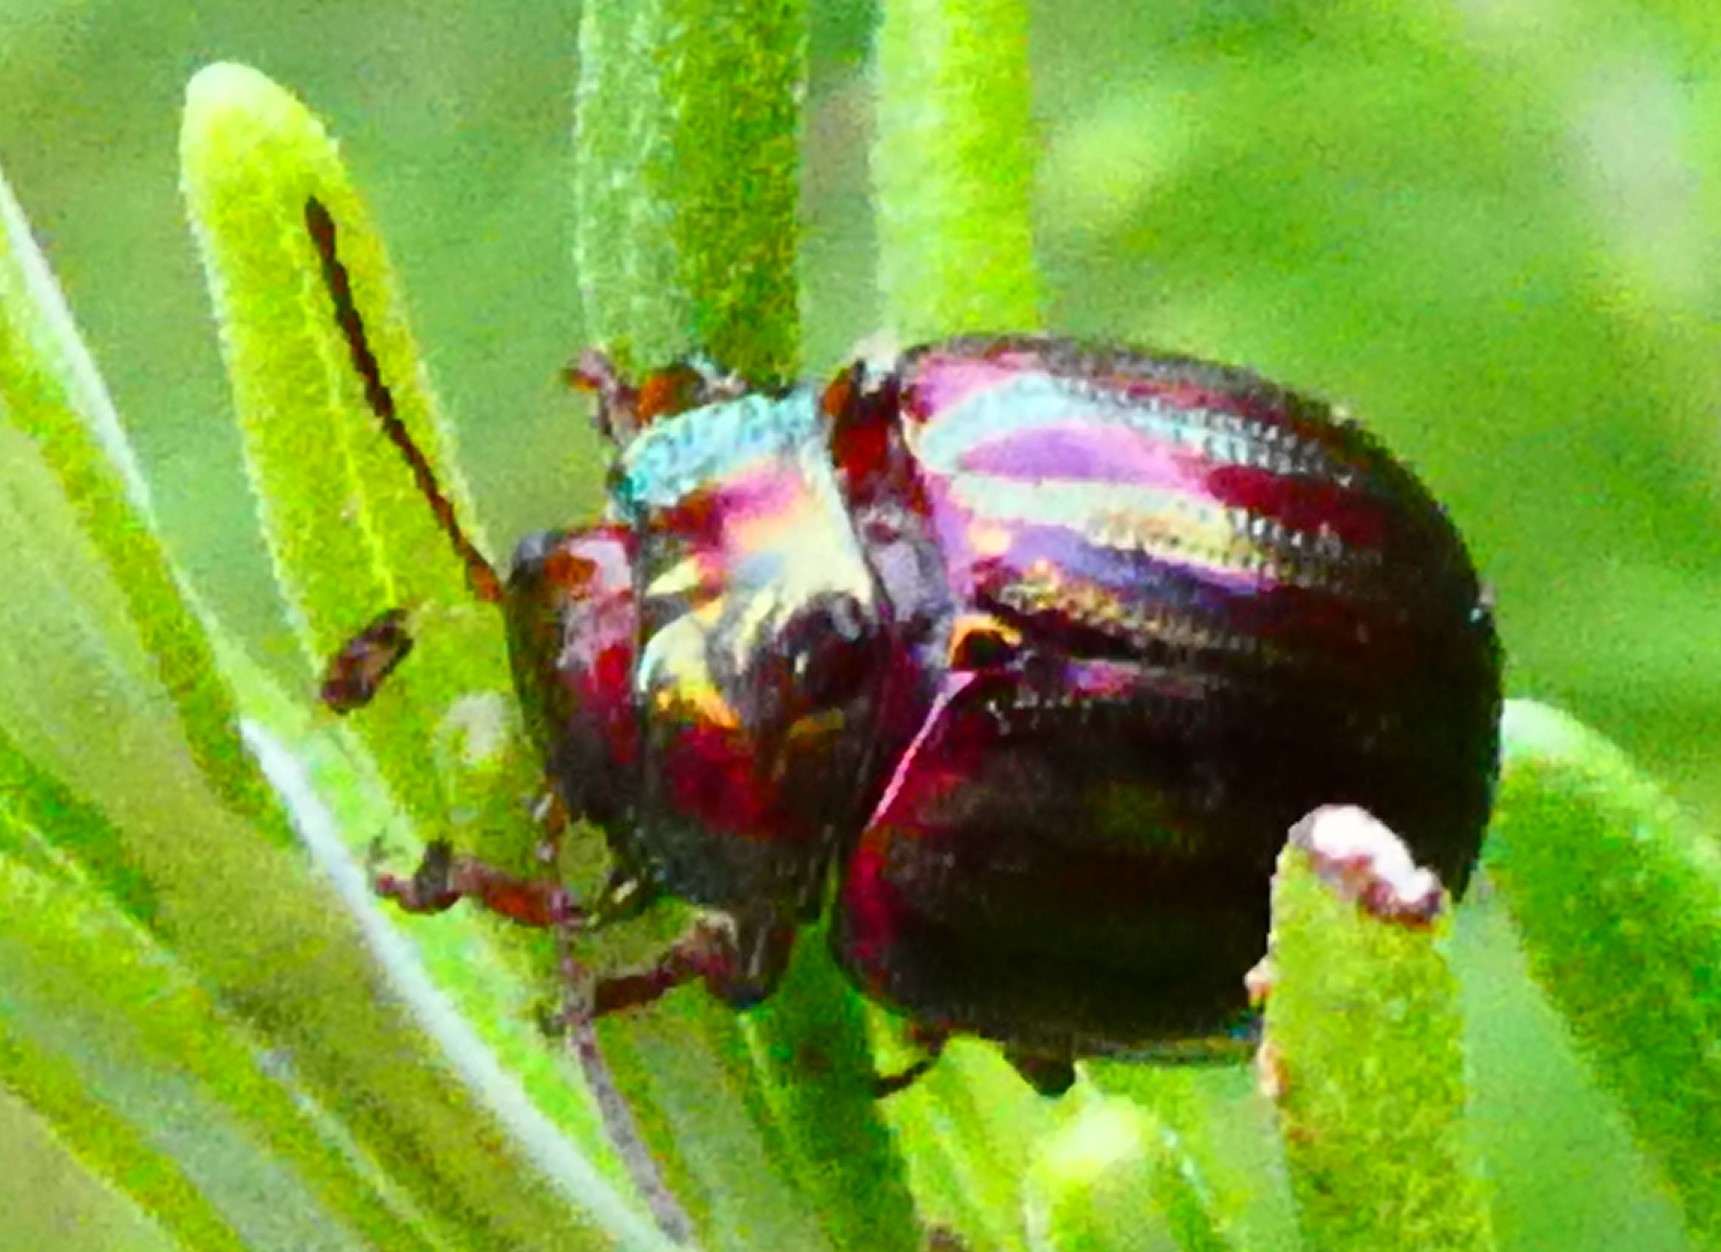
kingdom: Animalia
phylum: Arthropoda
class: Insecta
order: Coleoptera
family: Chrysomelidae
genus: Chrysolina
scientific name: Chrysolina americana
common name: Rosemary beetle
